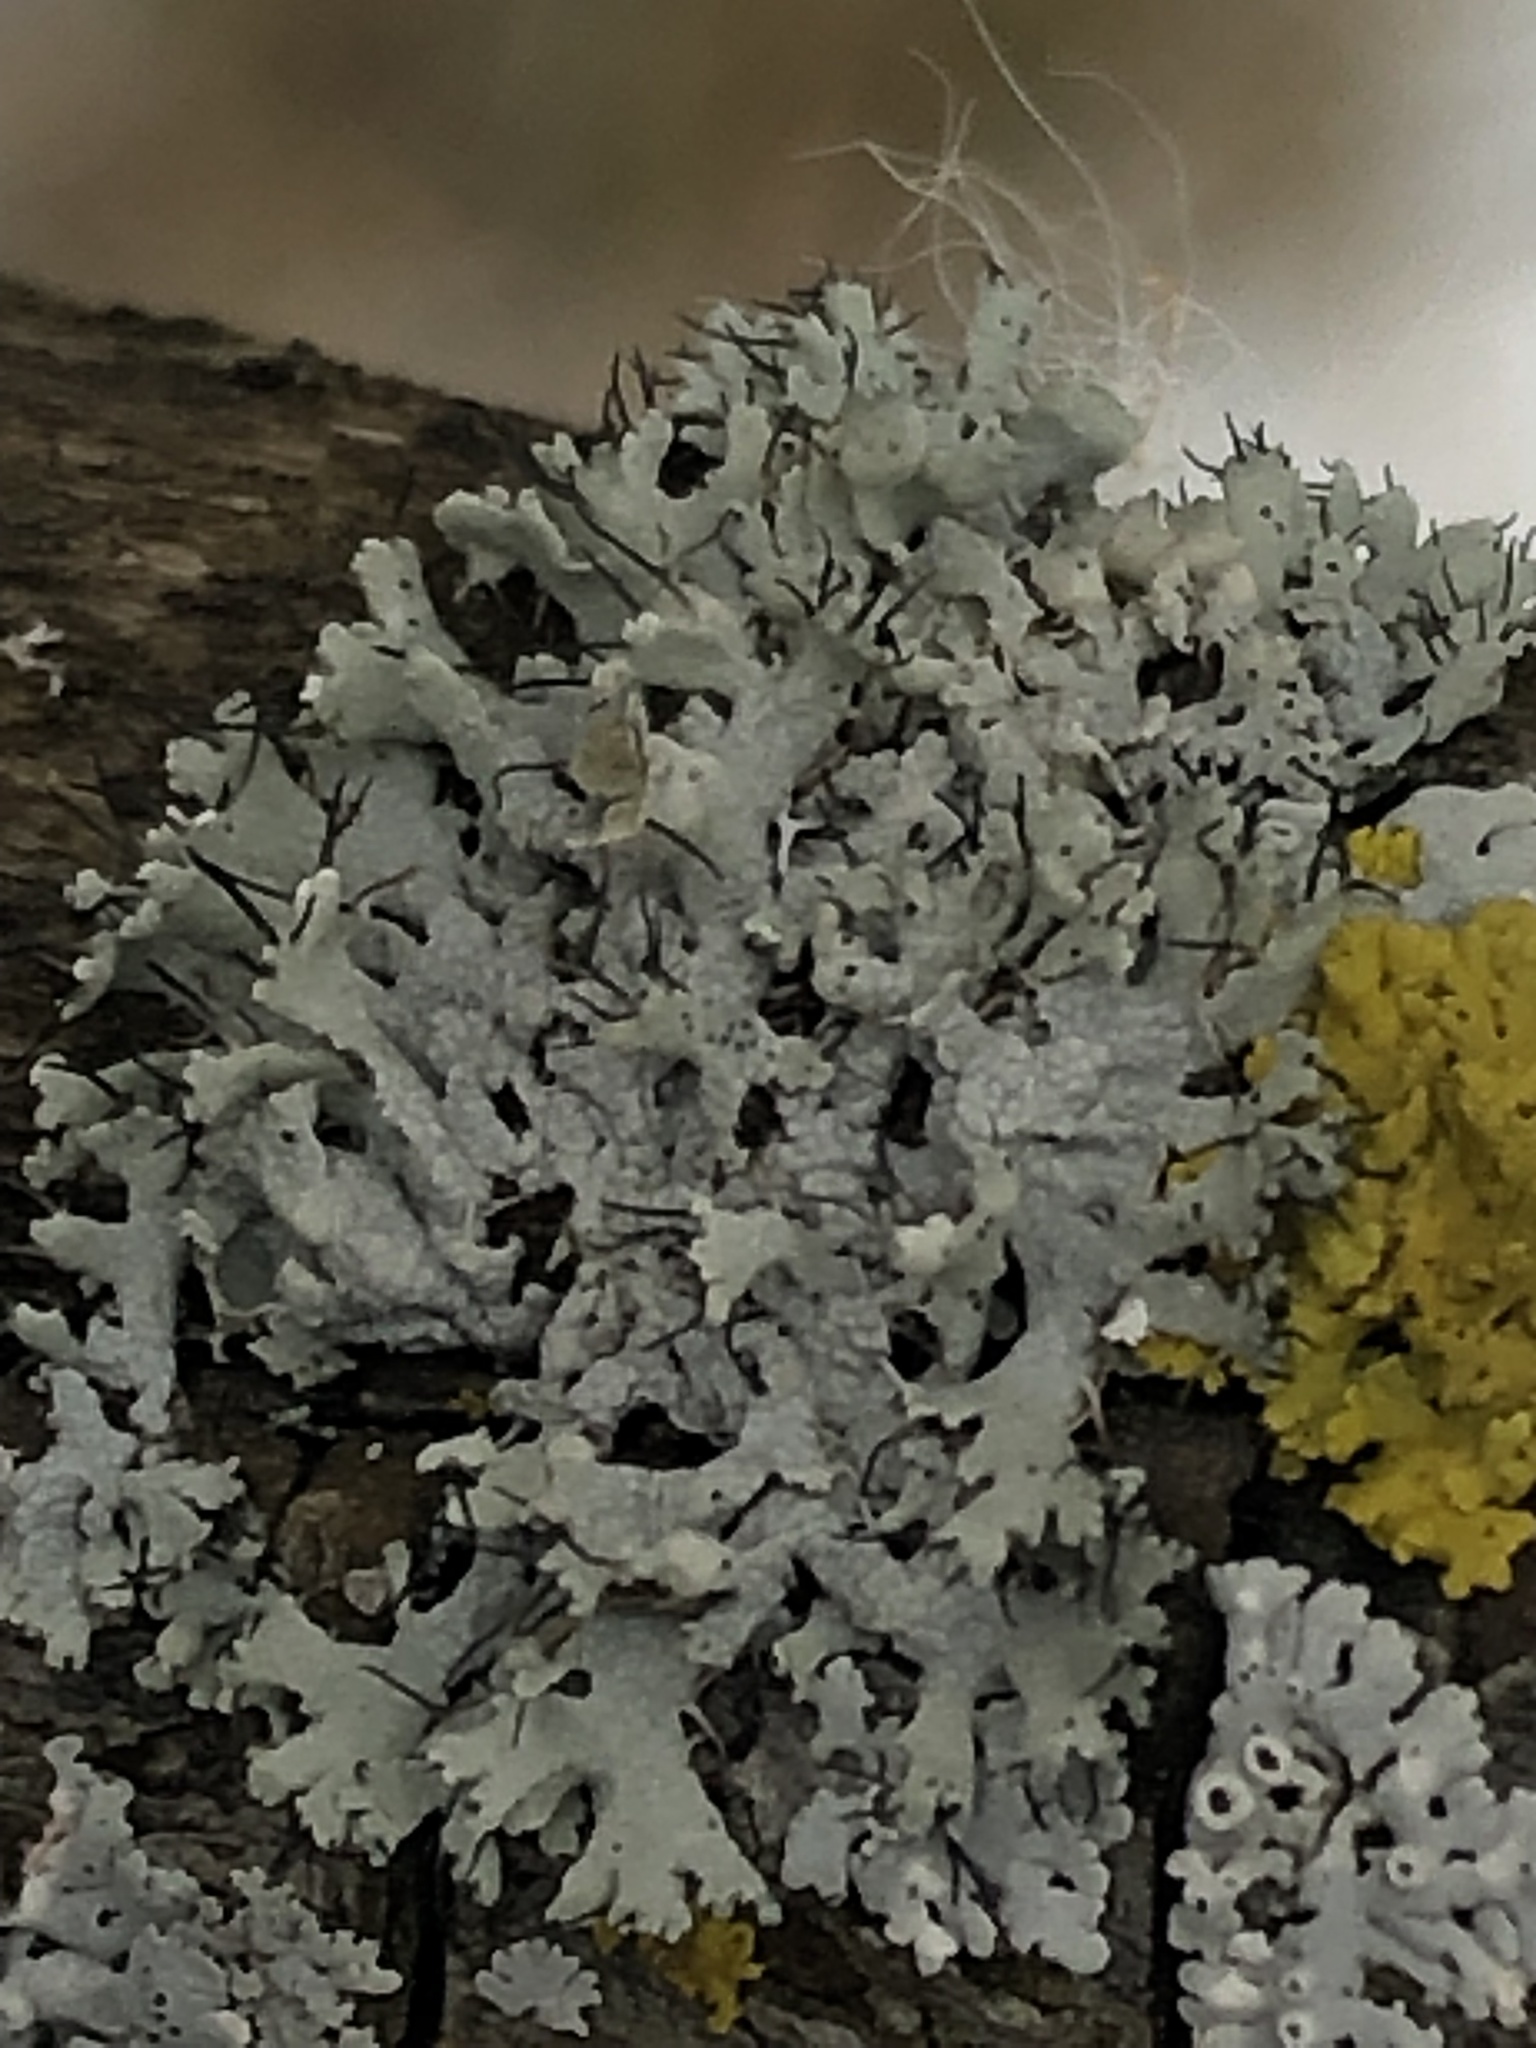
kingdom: Fungi
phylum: Ascomycota
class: Lecanoromycetes
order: Caliciales
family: Physciaceae
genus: Physcia
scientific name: Physcia adscendens
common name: Hooded rosette lichen
